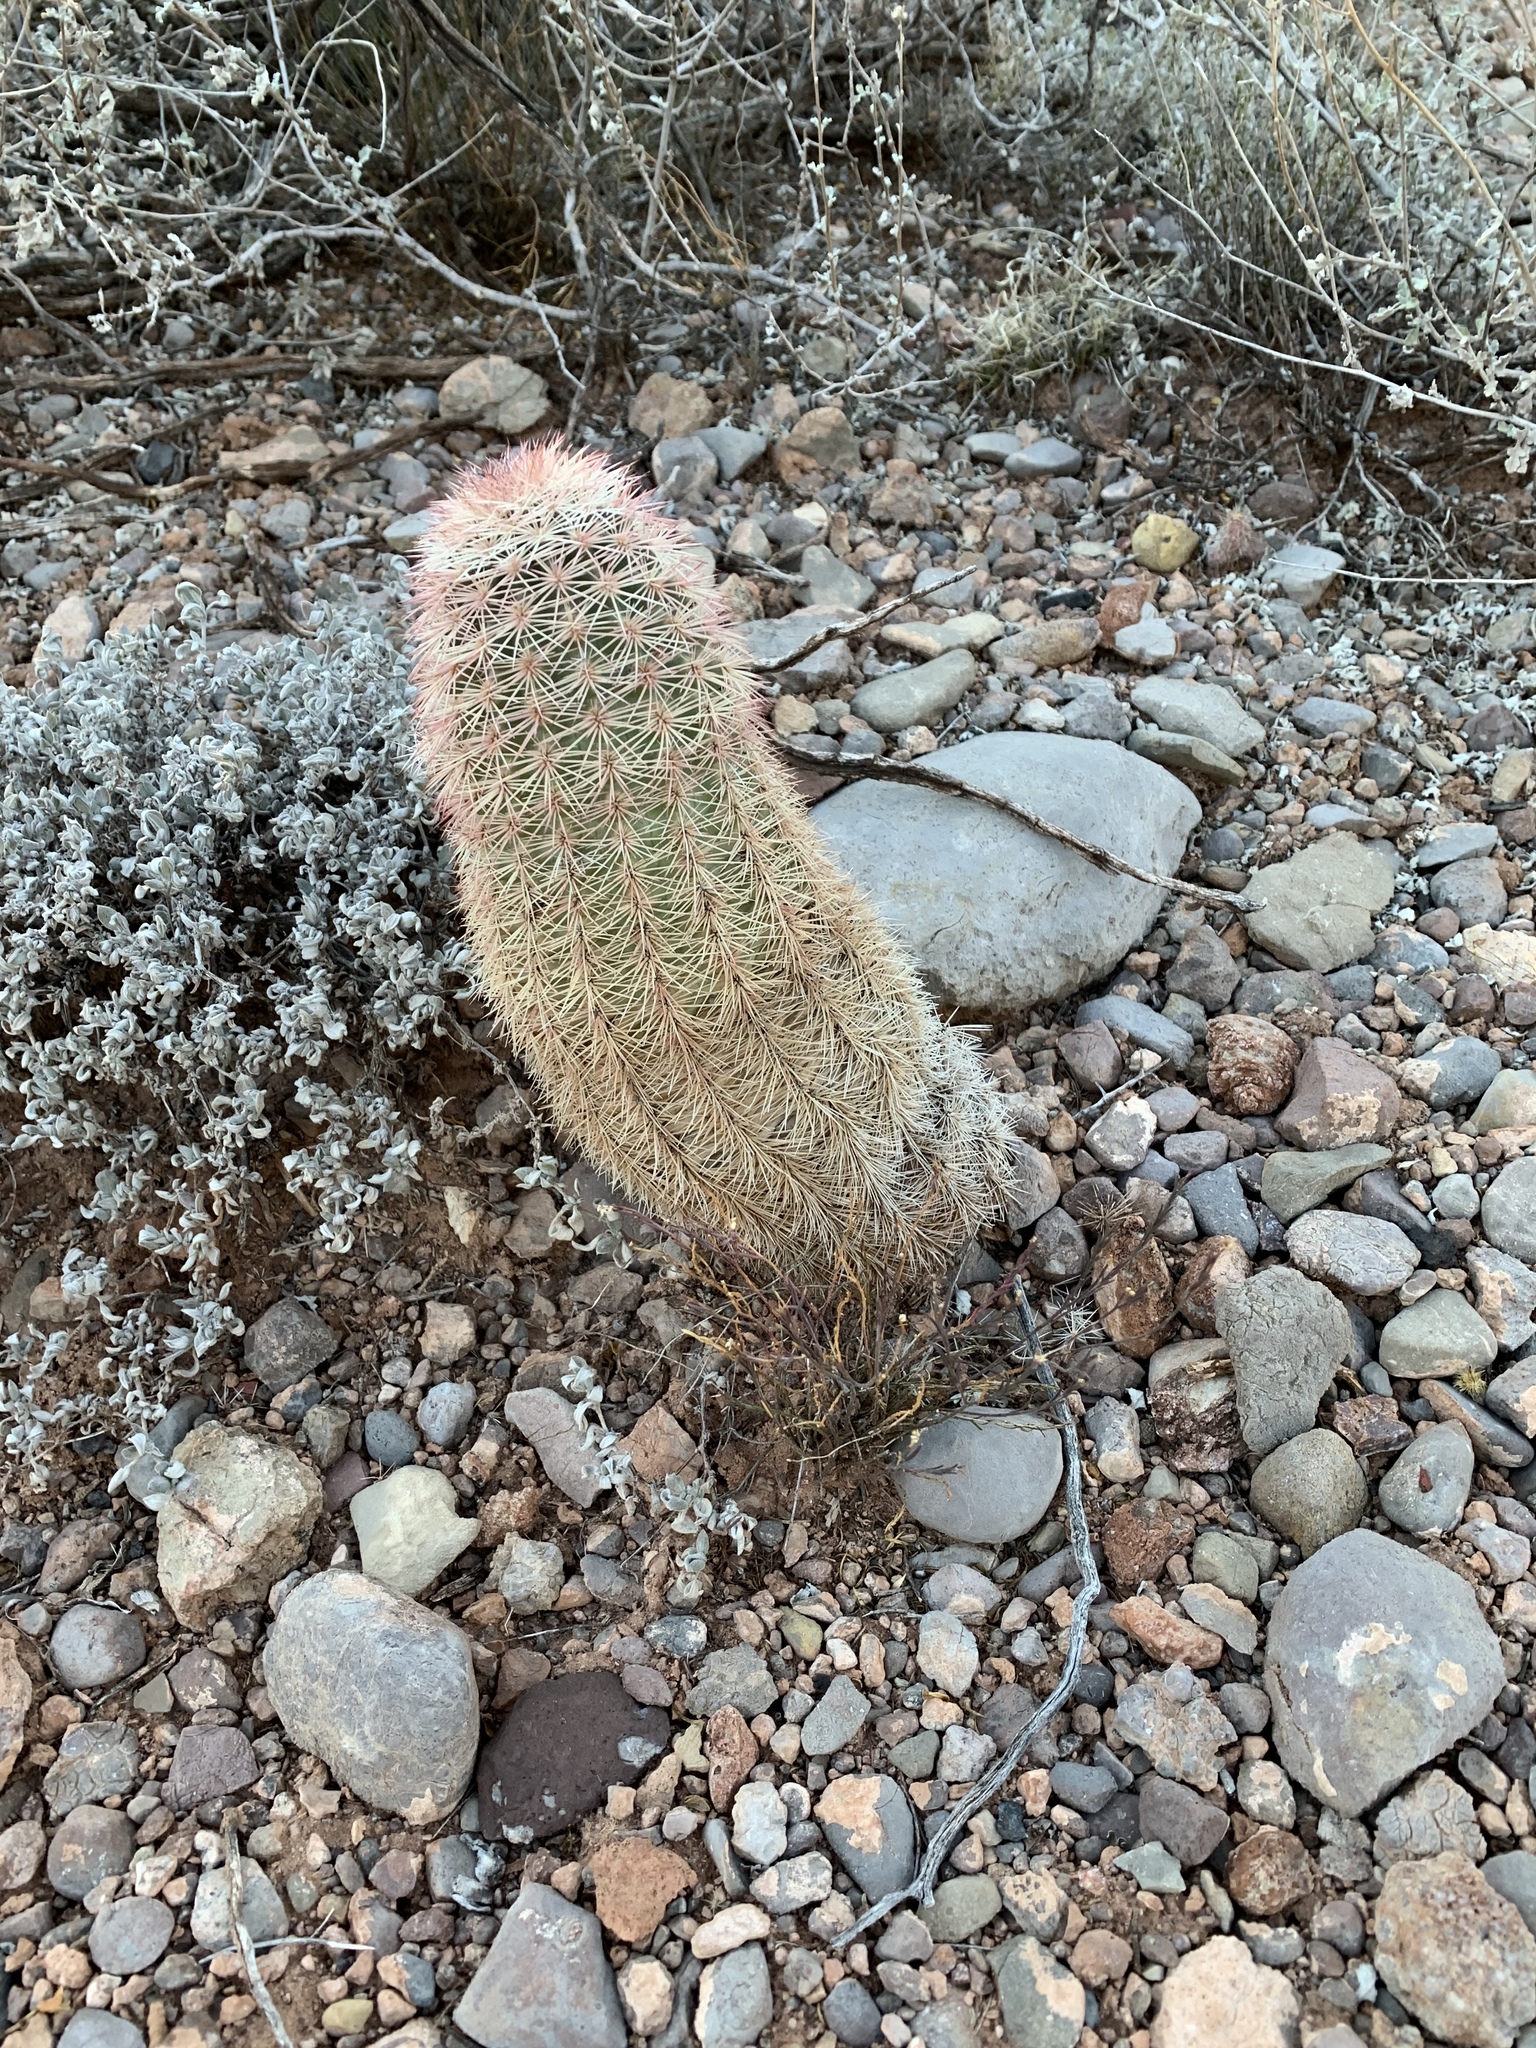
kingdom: Plantae
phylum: Tracheophyta
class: Magnoliopsida
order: Caryophyllales
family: Cactaceae
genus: Echinocereus
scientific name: Echinocereus dasyacanthus
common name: Spiny hedgehog cactus
